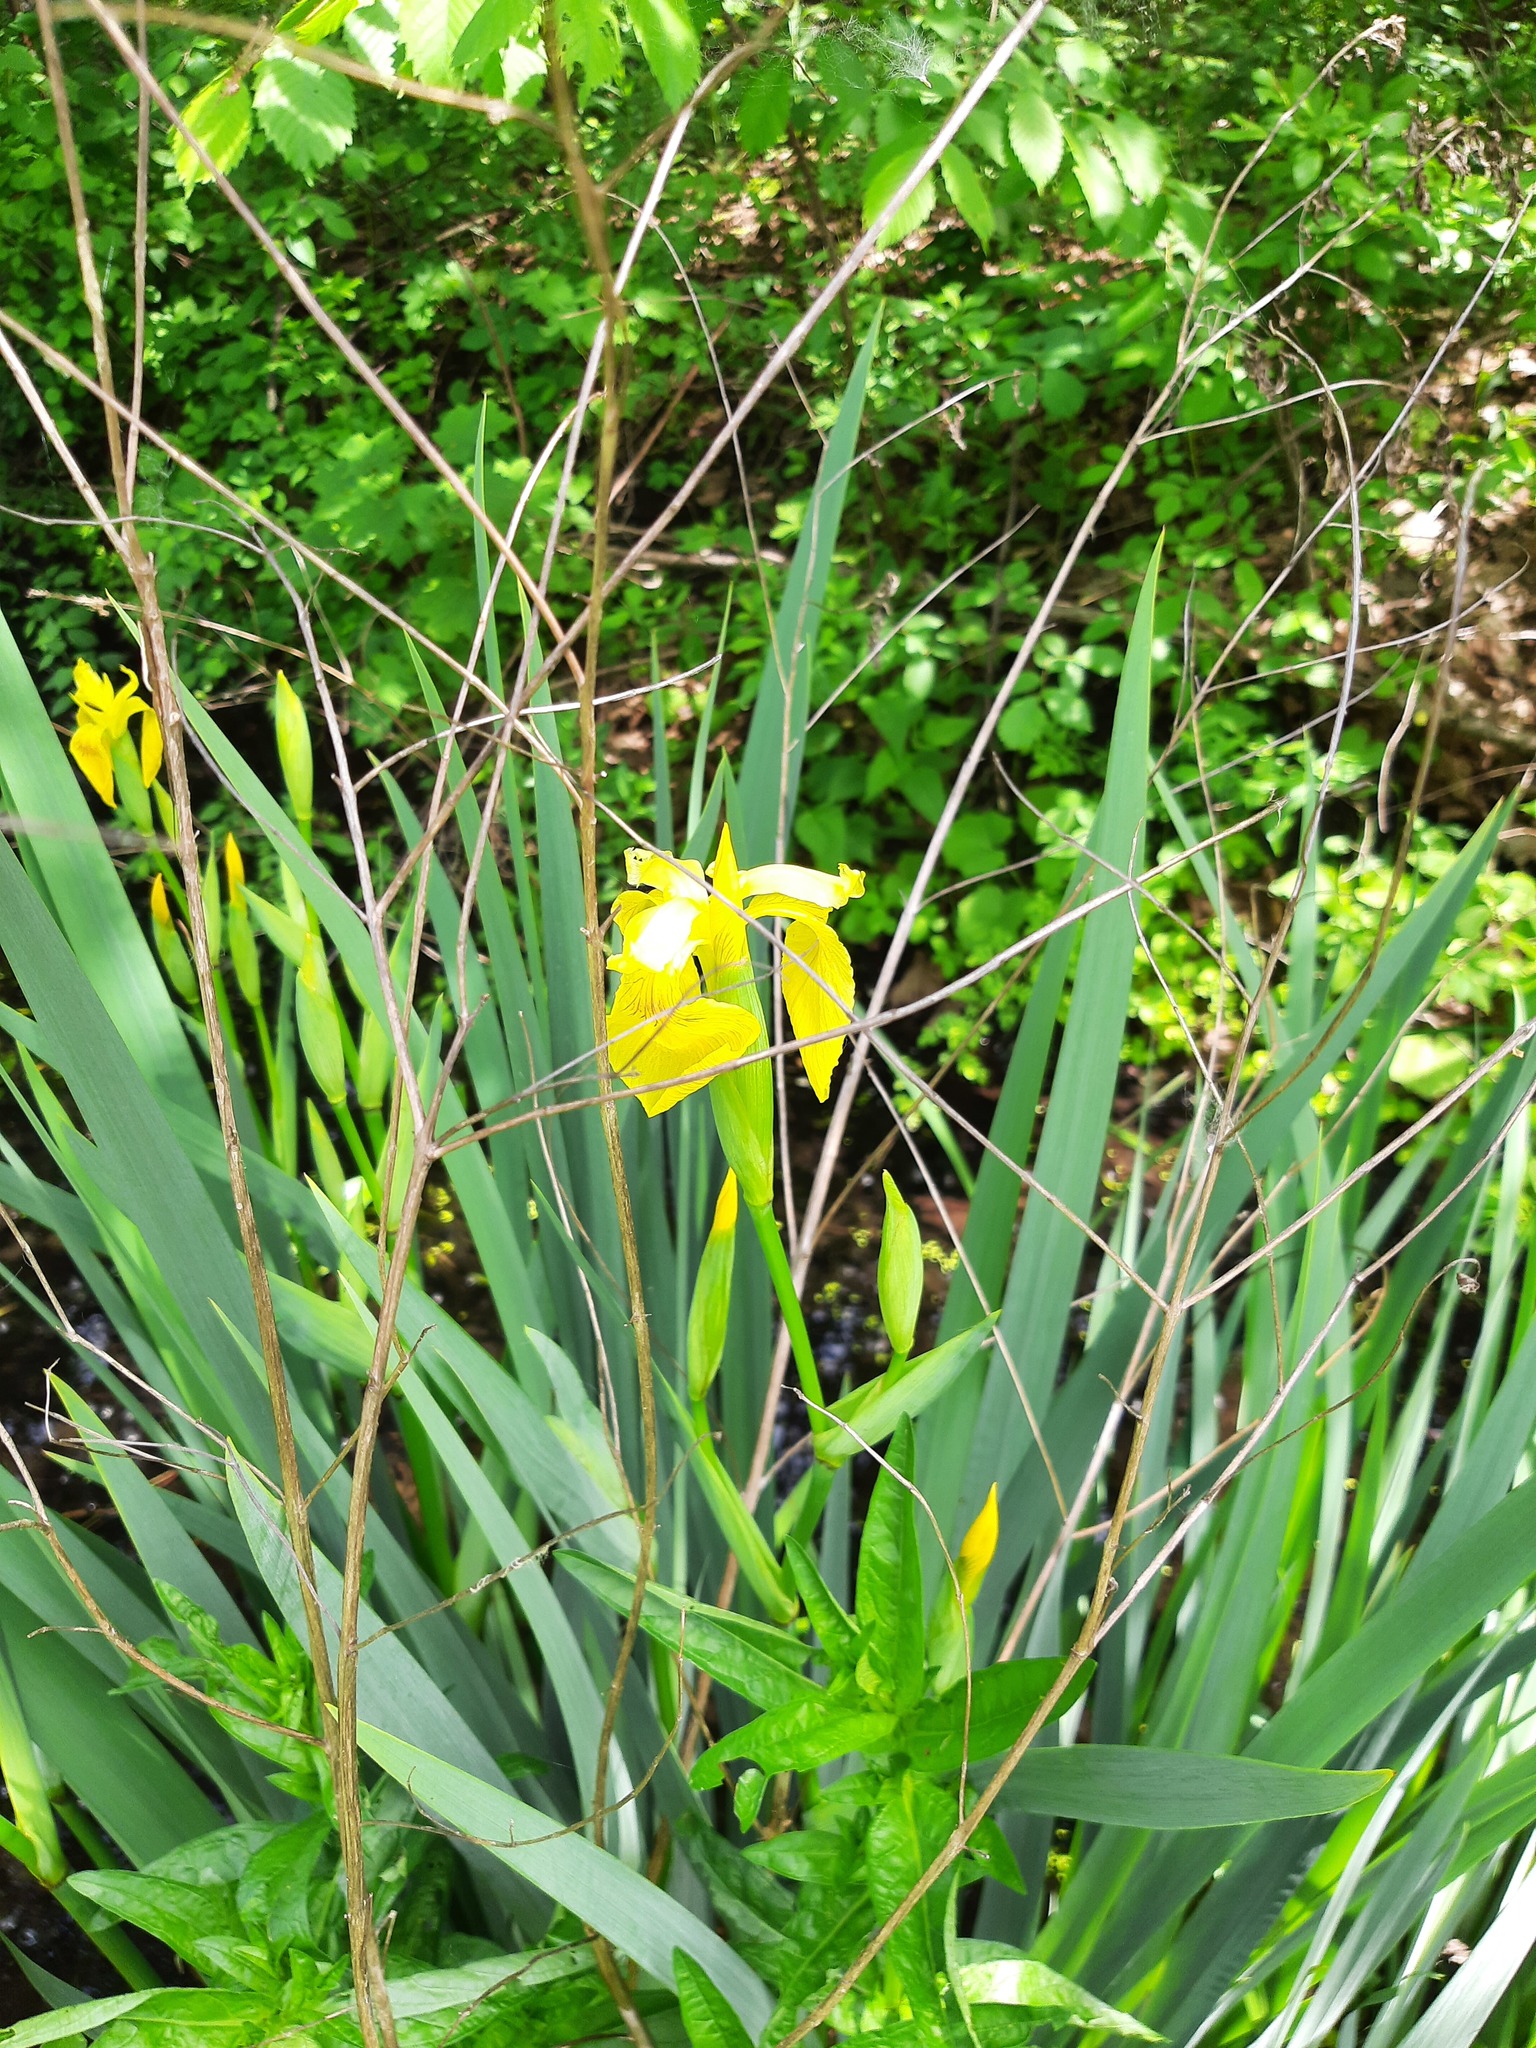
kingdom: Plantae
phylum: Tracheophyta
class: Liliopsida
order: Asparagales
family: Iridaceae
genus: Iris
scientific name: Iris pseudacorus
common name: Yellow flag
